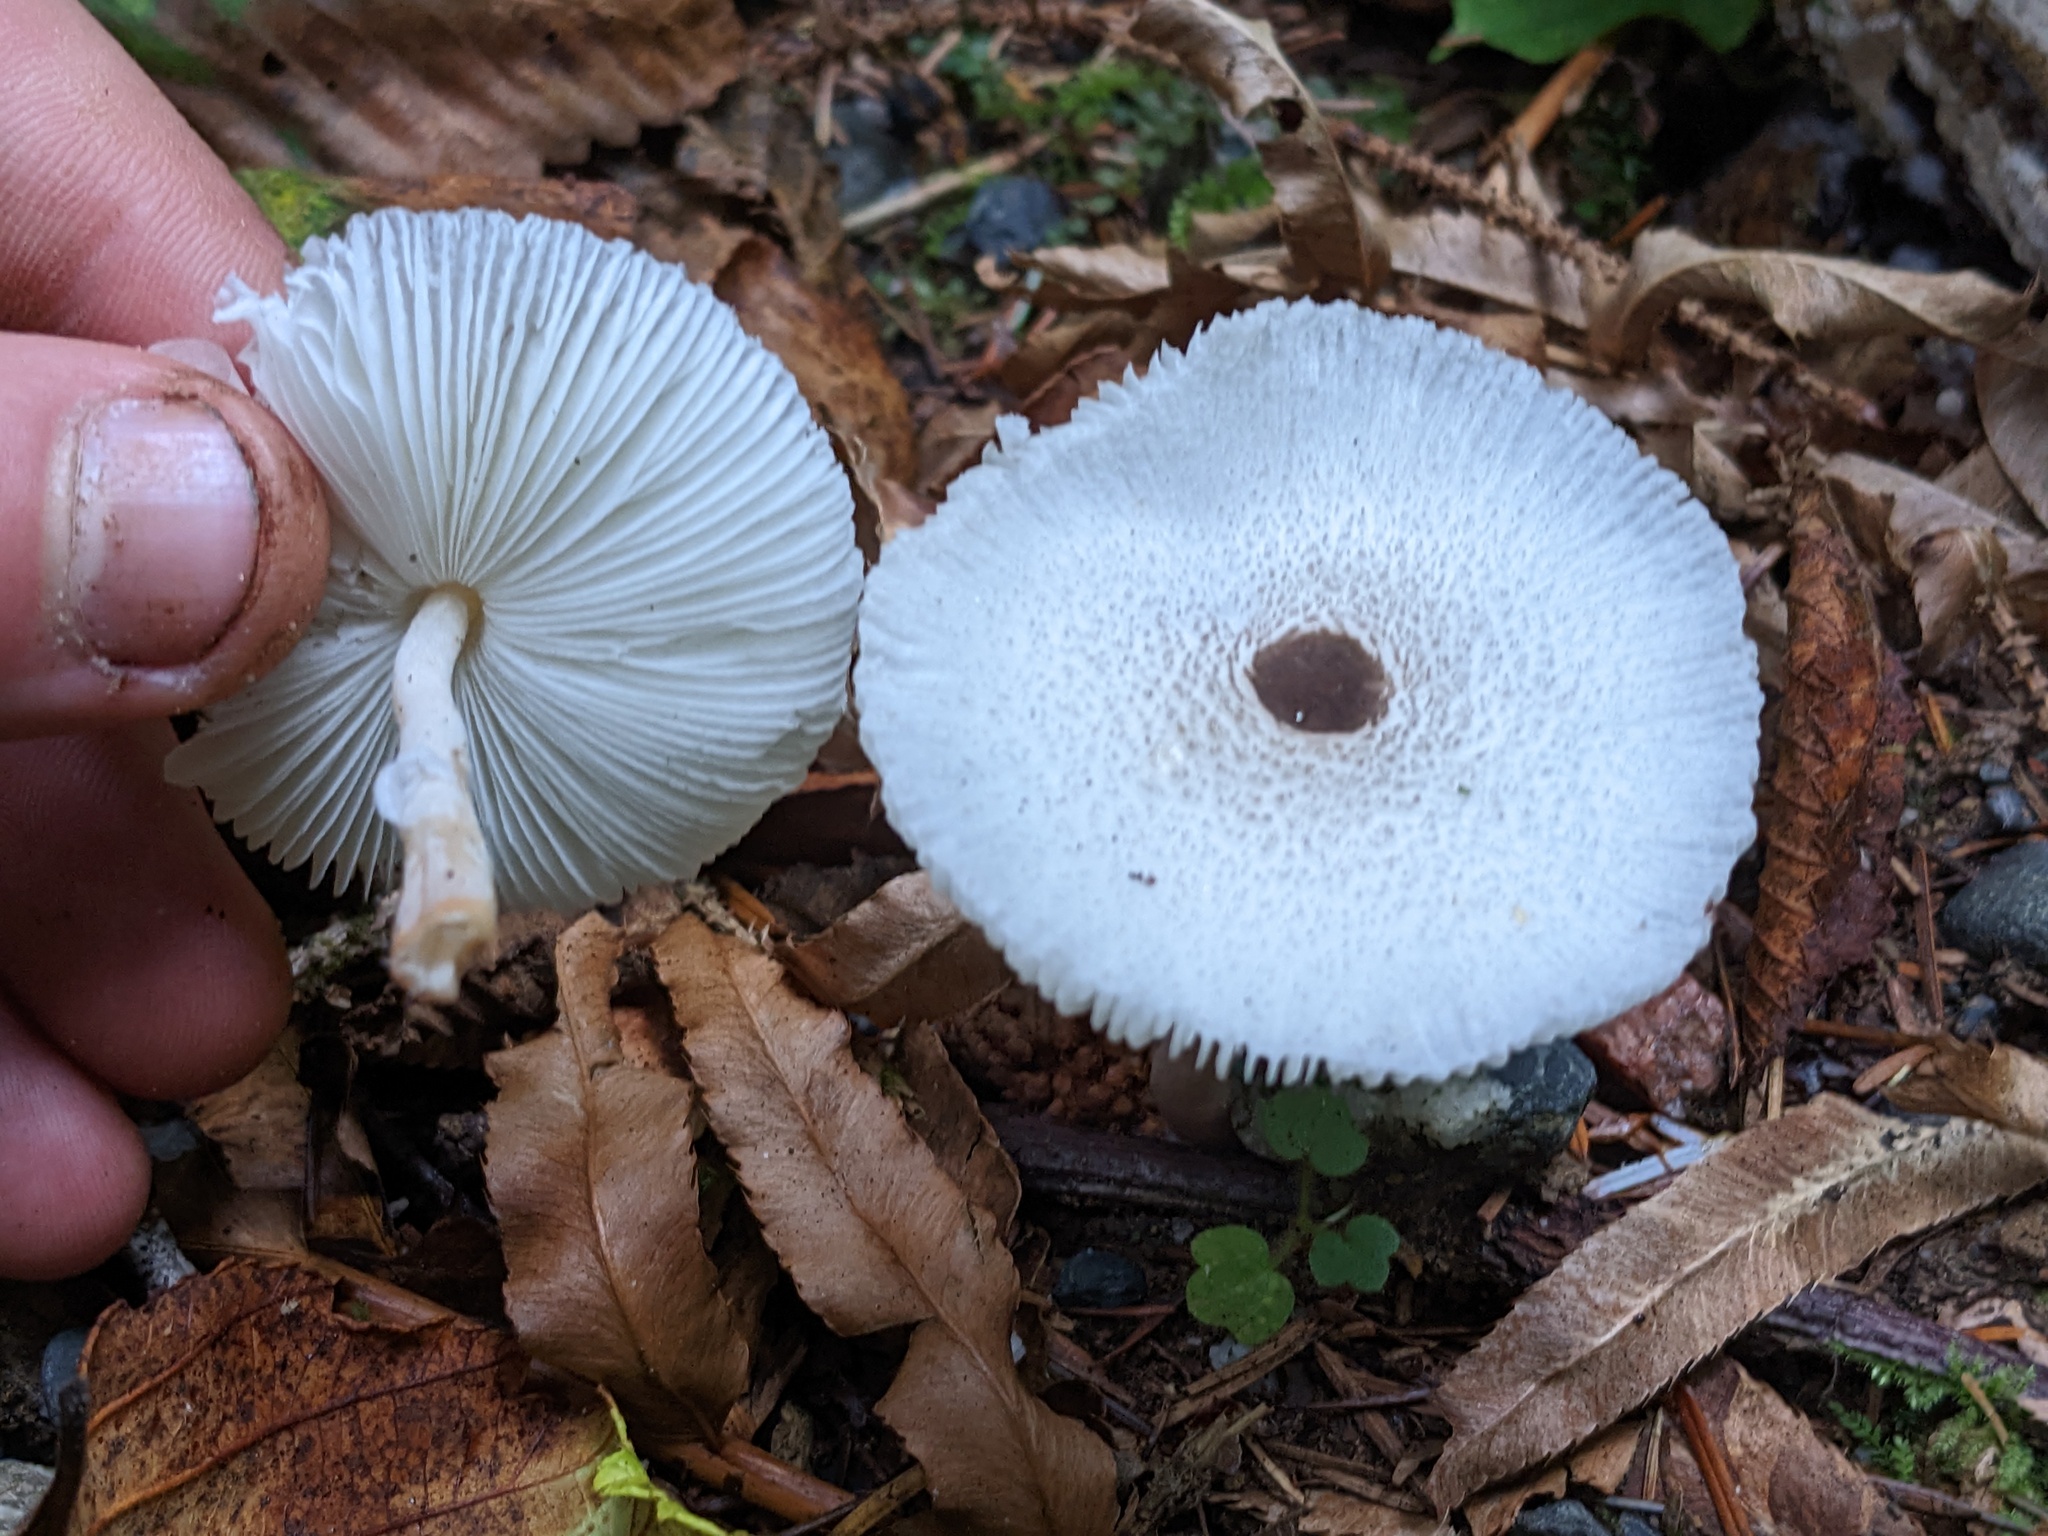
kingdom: Fungi
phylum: Basidiomycota
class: Agaricomycetes
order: Agaricales
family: Agaricaceae
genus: Leucocoprinus
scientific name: Leucocoprinus brebissonii
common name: Skullcap dapperling
